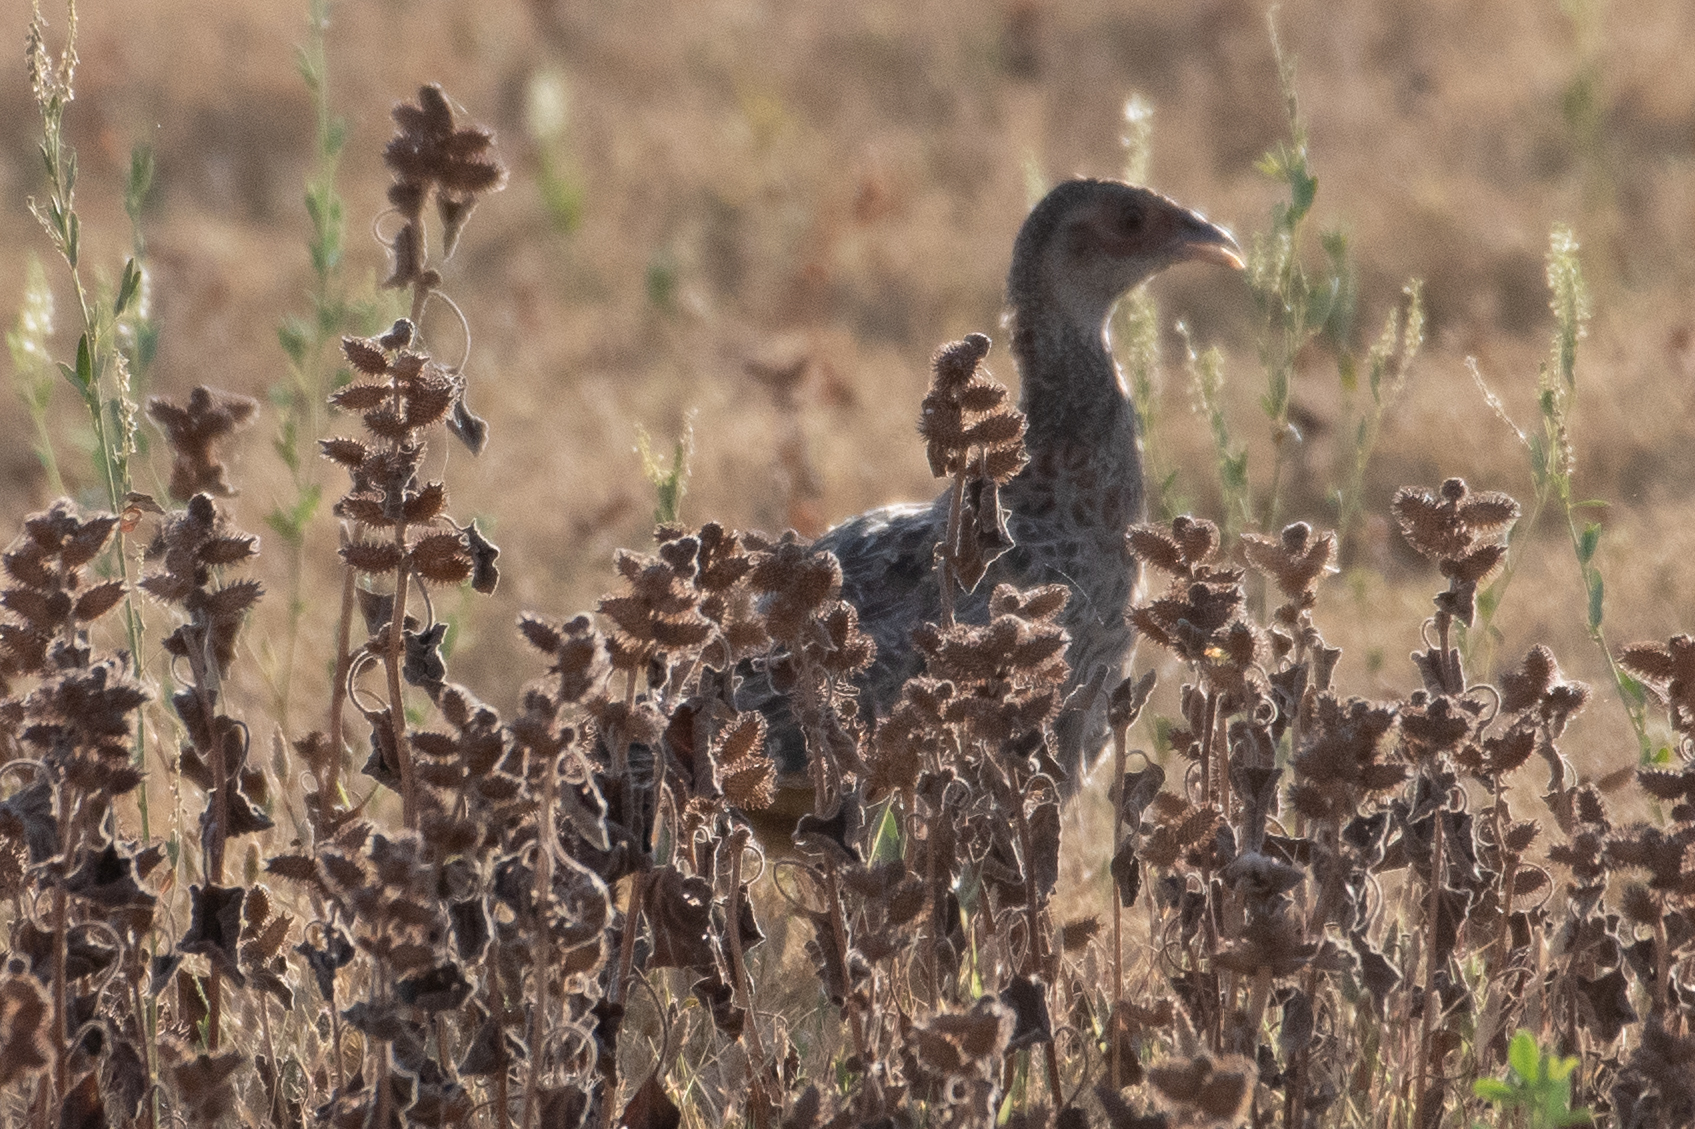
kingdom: Animalia
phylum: Chordata
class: Aves
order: Galliformes
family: Phasianidae
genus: Phasianus
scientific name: Phasianus colchicus
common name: Common pheasant
